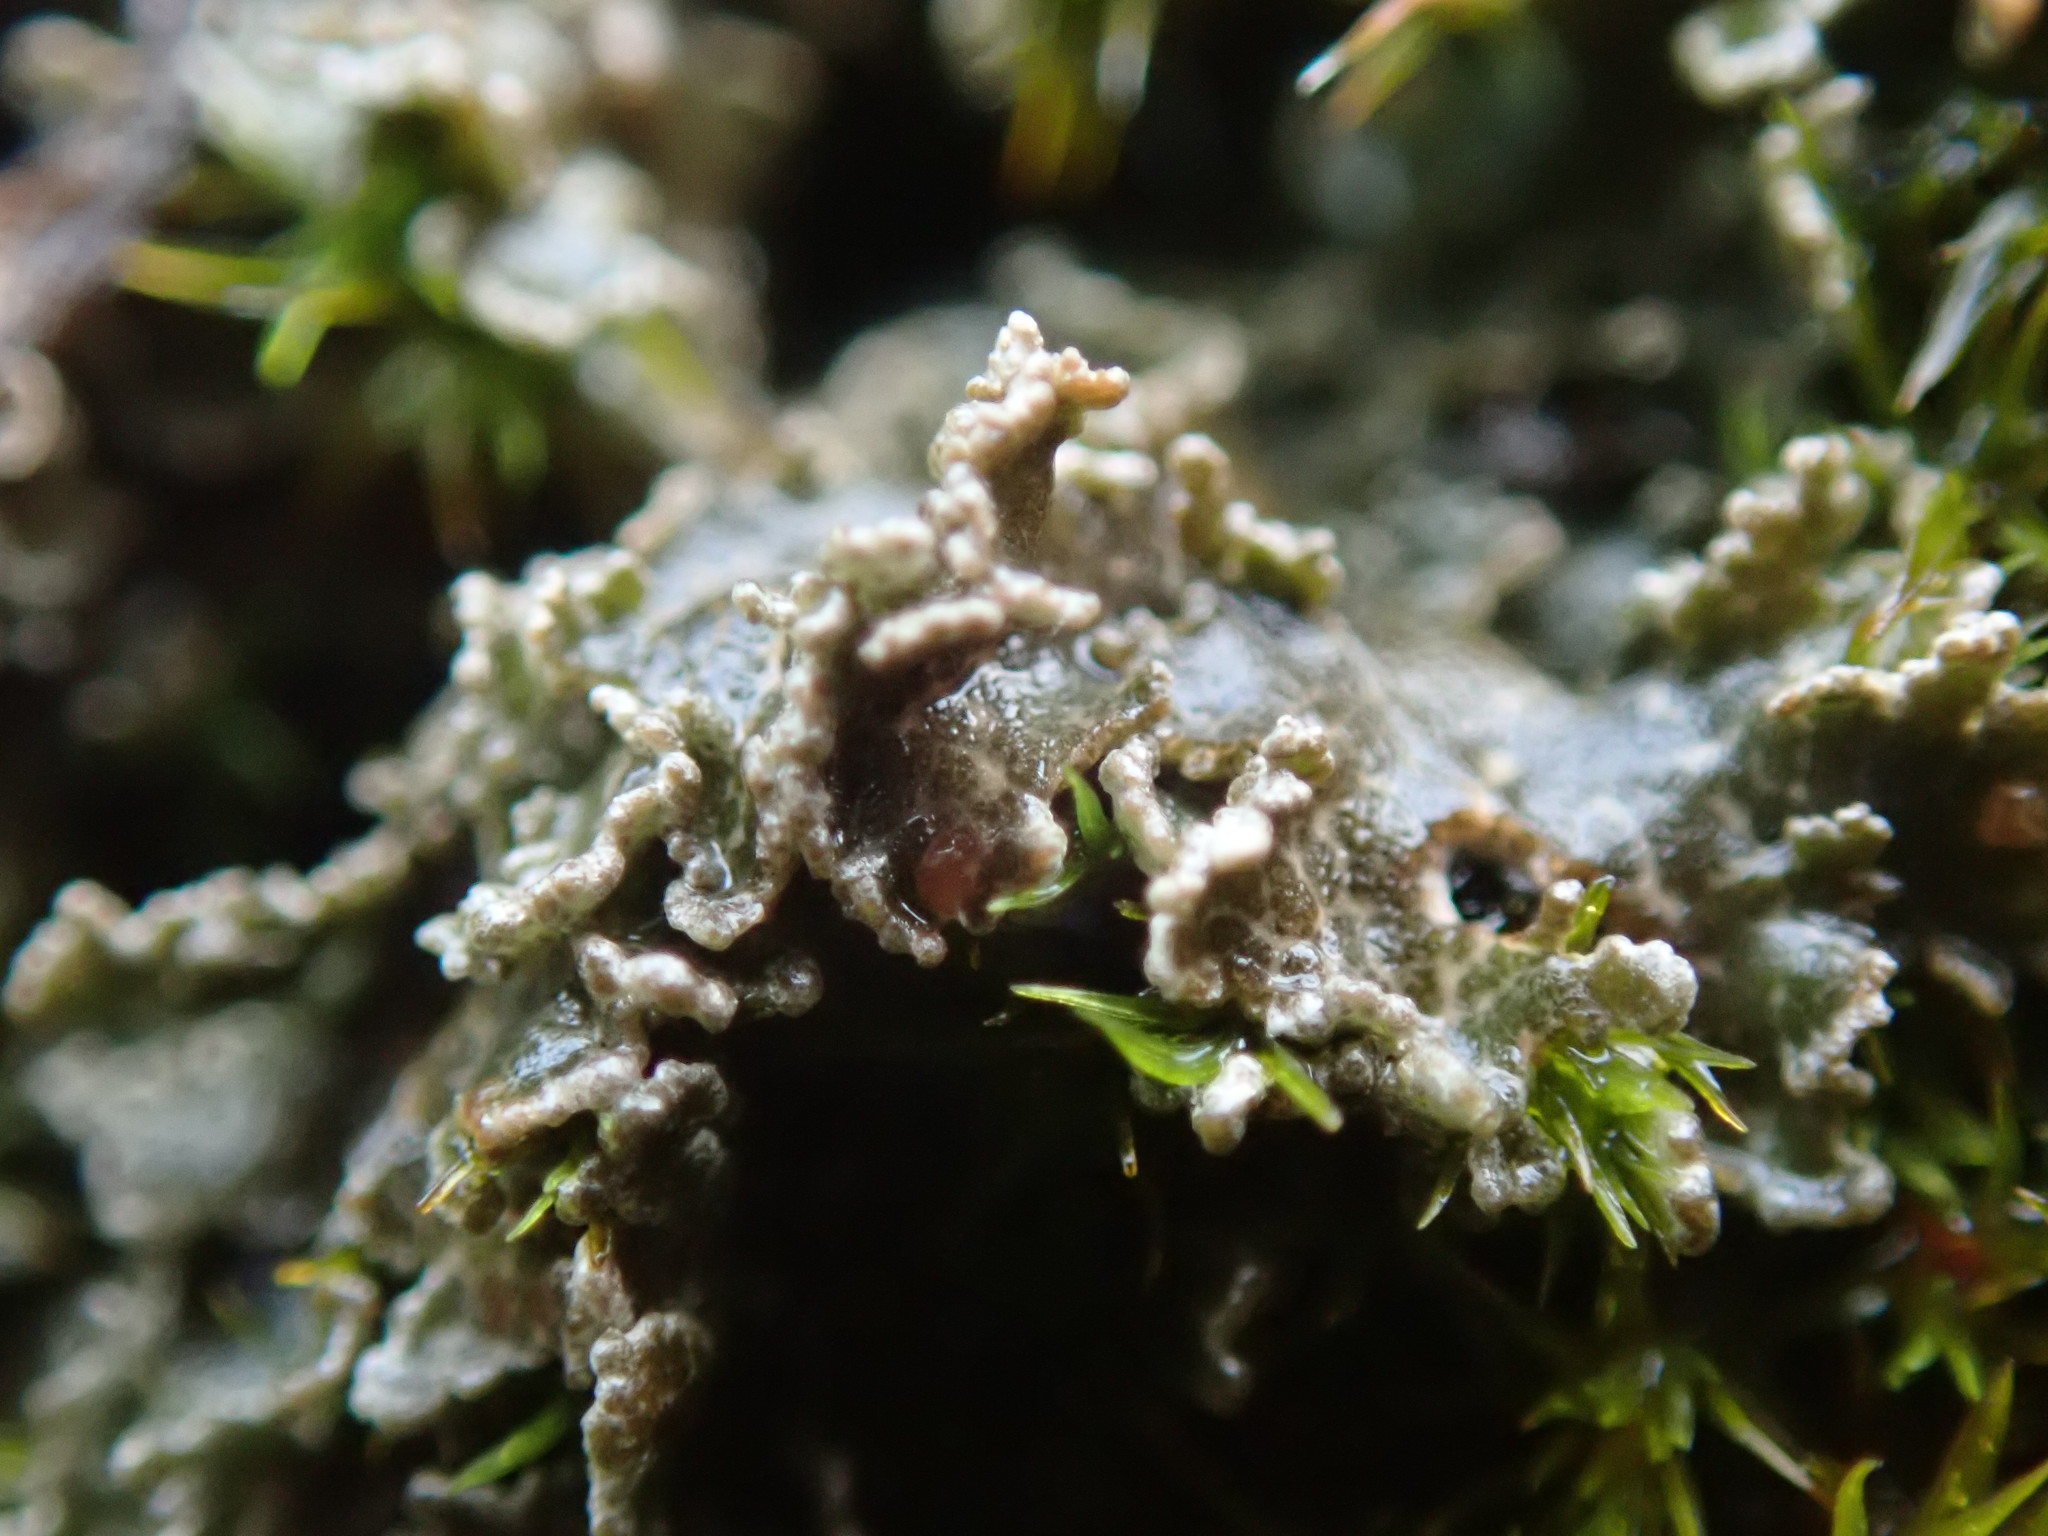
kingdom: Fungi
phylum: Ascomycota
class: Lecanoromycetes
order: Peltigerales
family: Massalongiaceae
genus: Massalongia
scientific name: Massalongia carnosa
